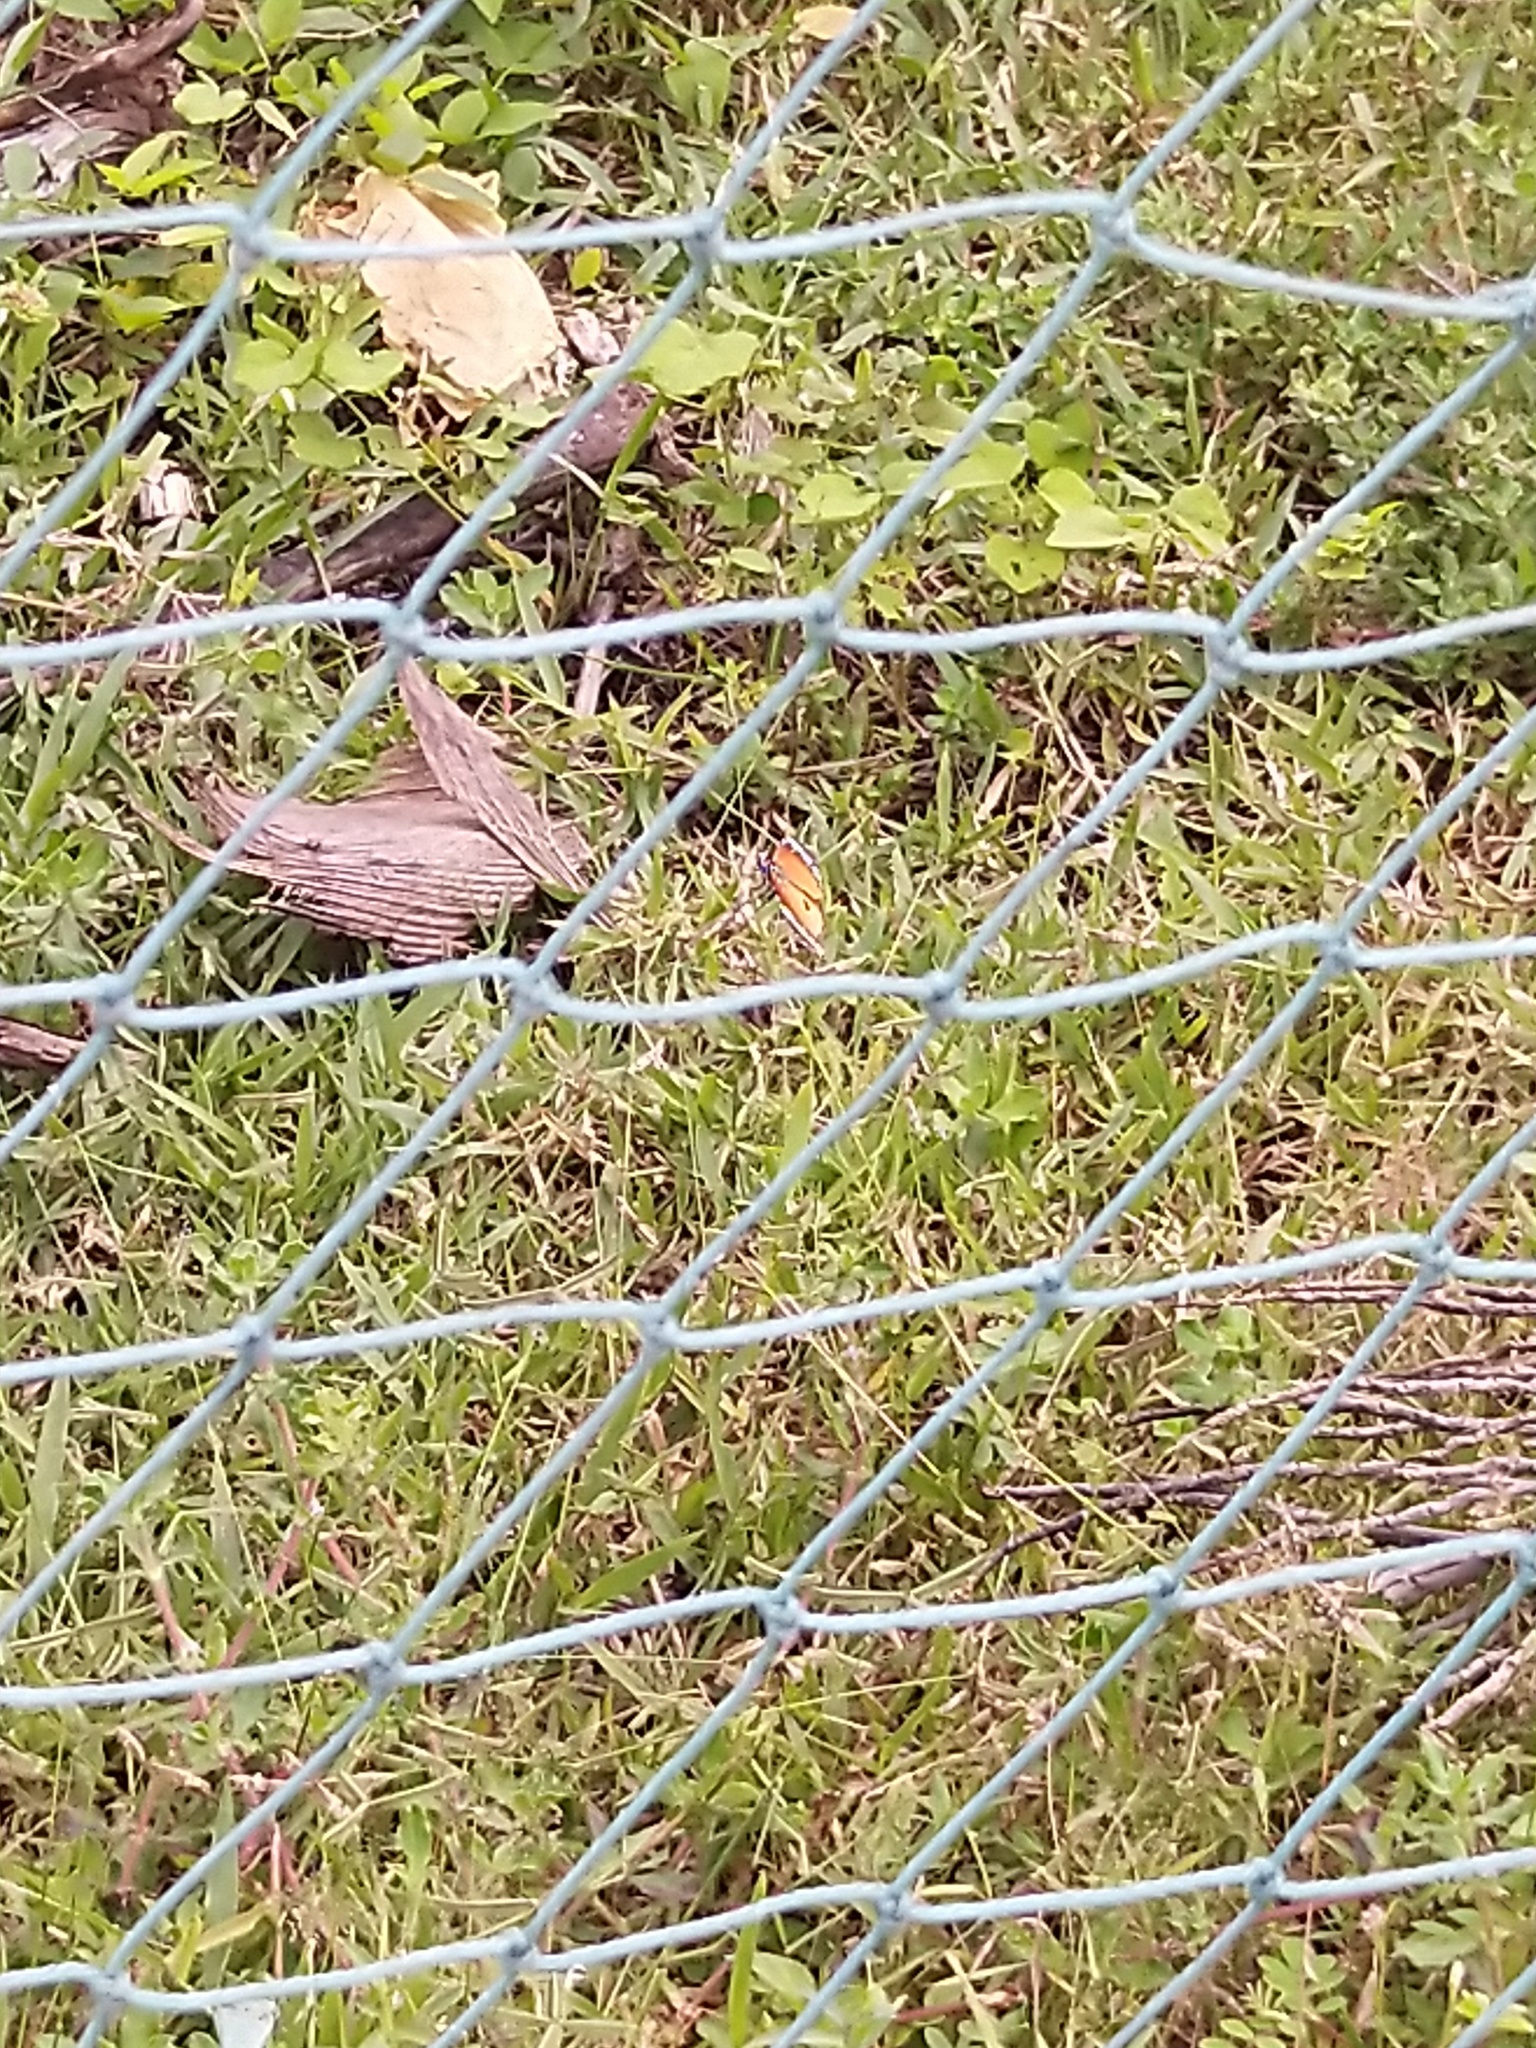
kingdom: Animalia
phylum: Arthropoda
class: Insecta
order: Lepidoptera
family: Nymphalidae
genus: Danaus
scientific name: Danaus chrysippus
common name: Plain tiger
